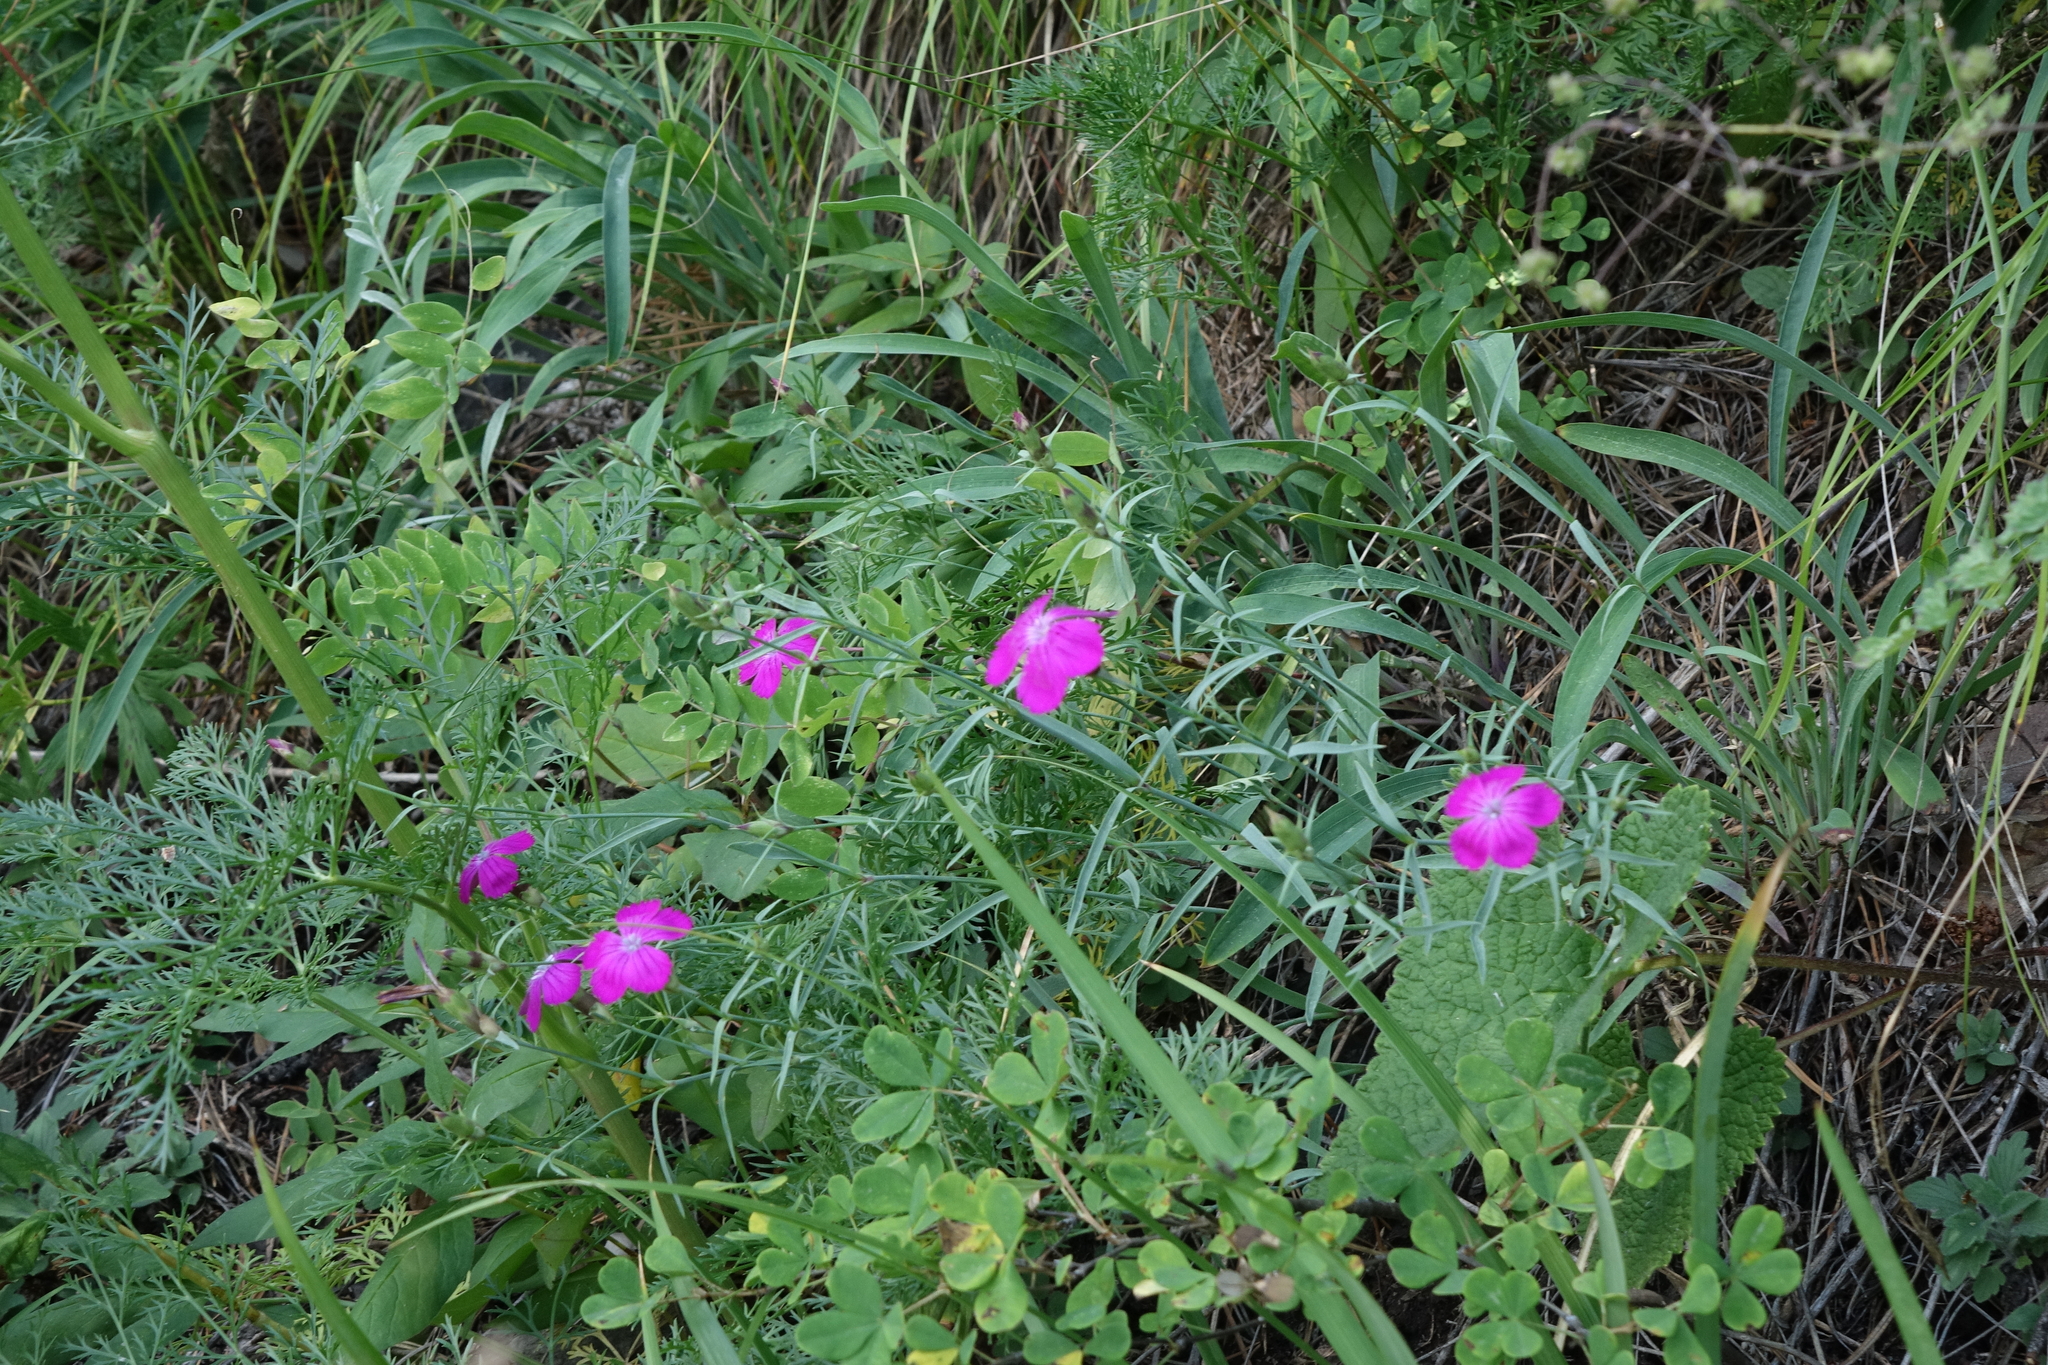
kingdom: Plantae
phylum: Tracheophyta
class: Magnoliopsida
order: Caryophyllales
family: Caryophyllaceae
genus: Dianthus
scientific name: Dianthus chinensis
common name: Rainbow pink
